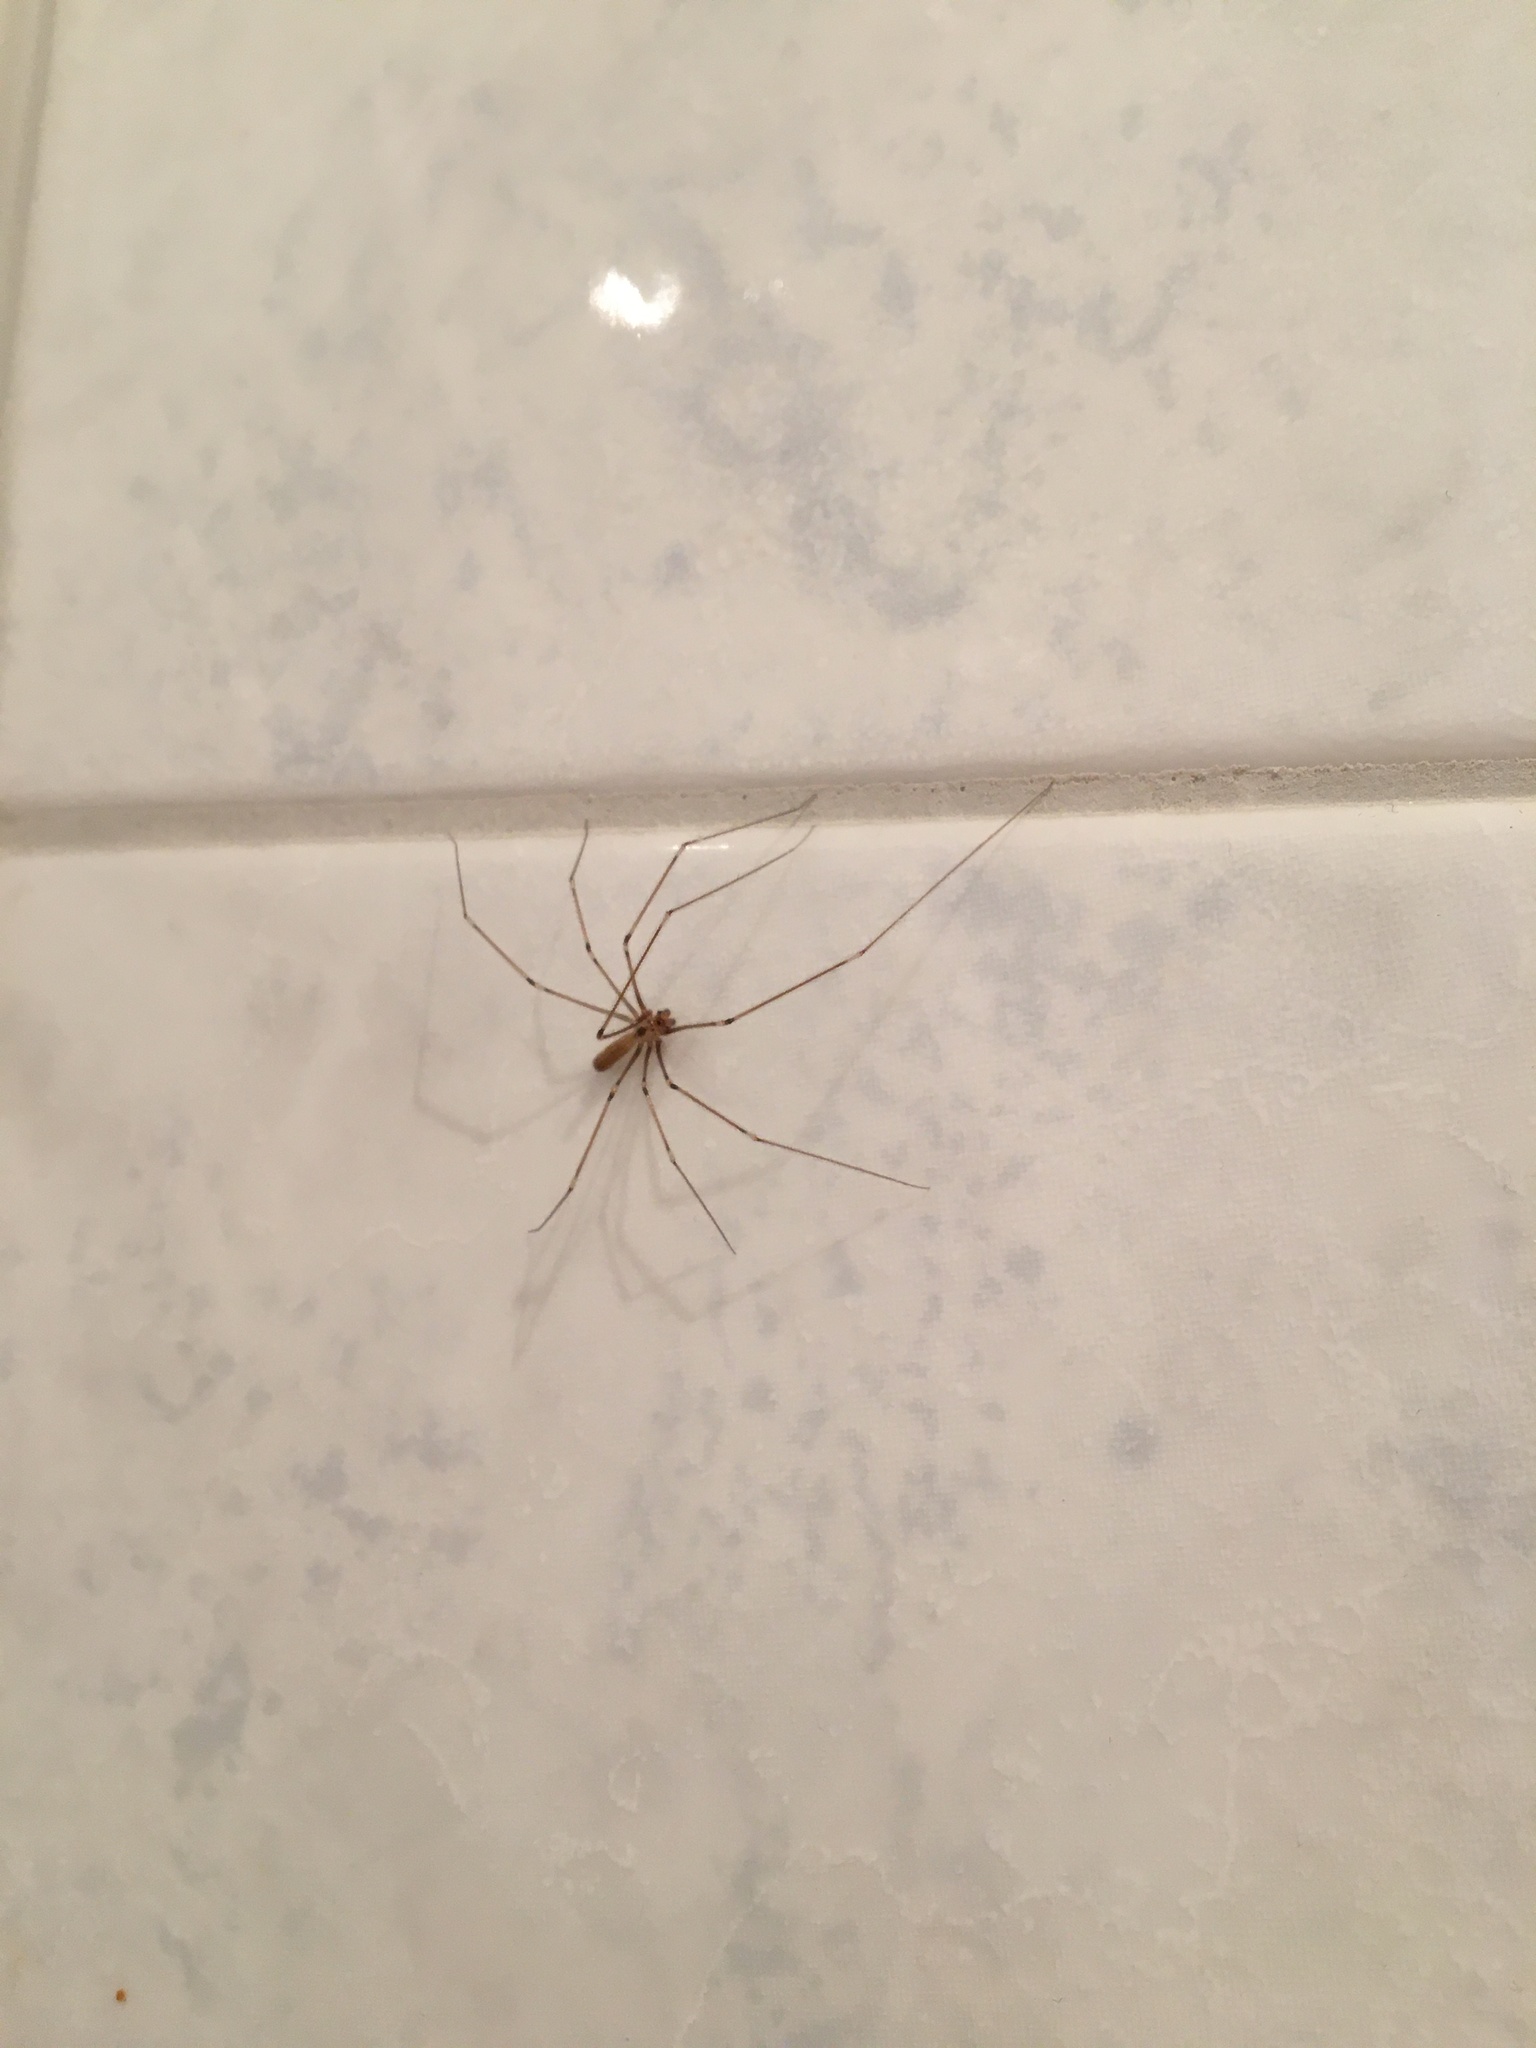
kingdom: Animalia
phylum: Arthropoda
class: Arachnida
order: Araneae
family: Pholcidae
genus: Pholcus
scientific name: Pholcus phalangioides
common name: Longbodied cellar spider
